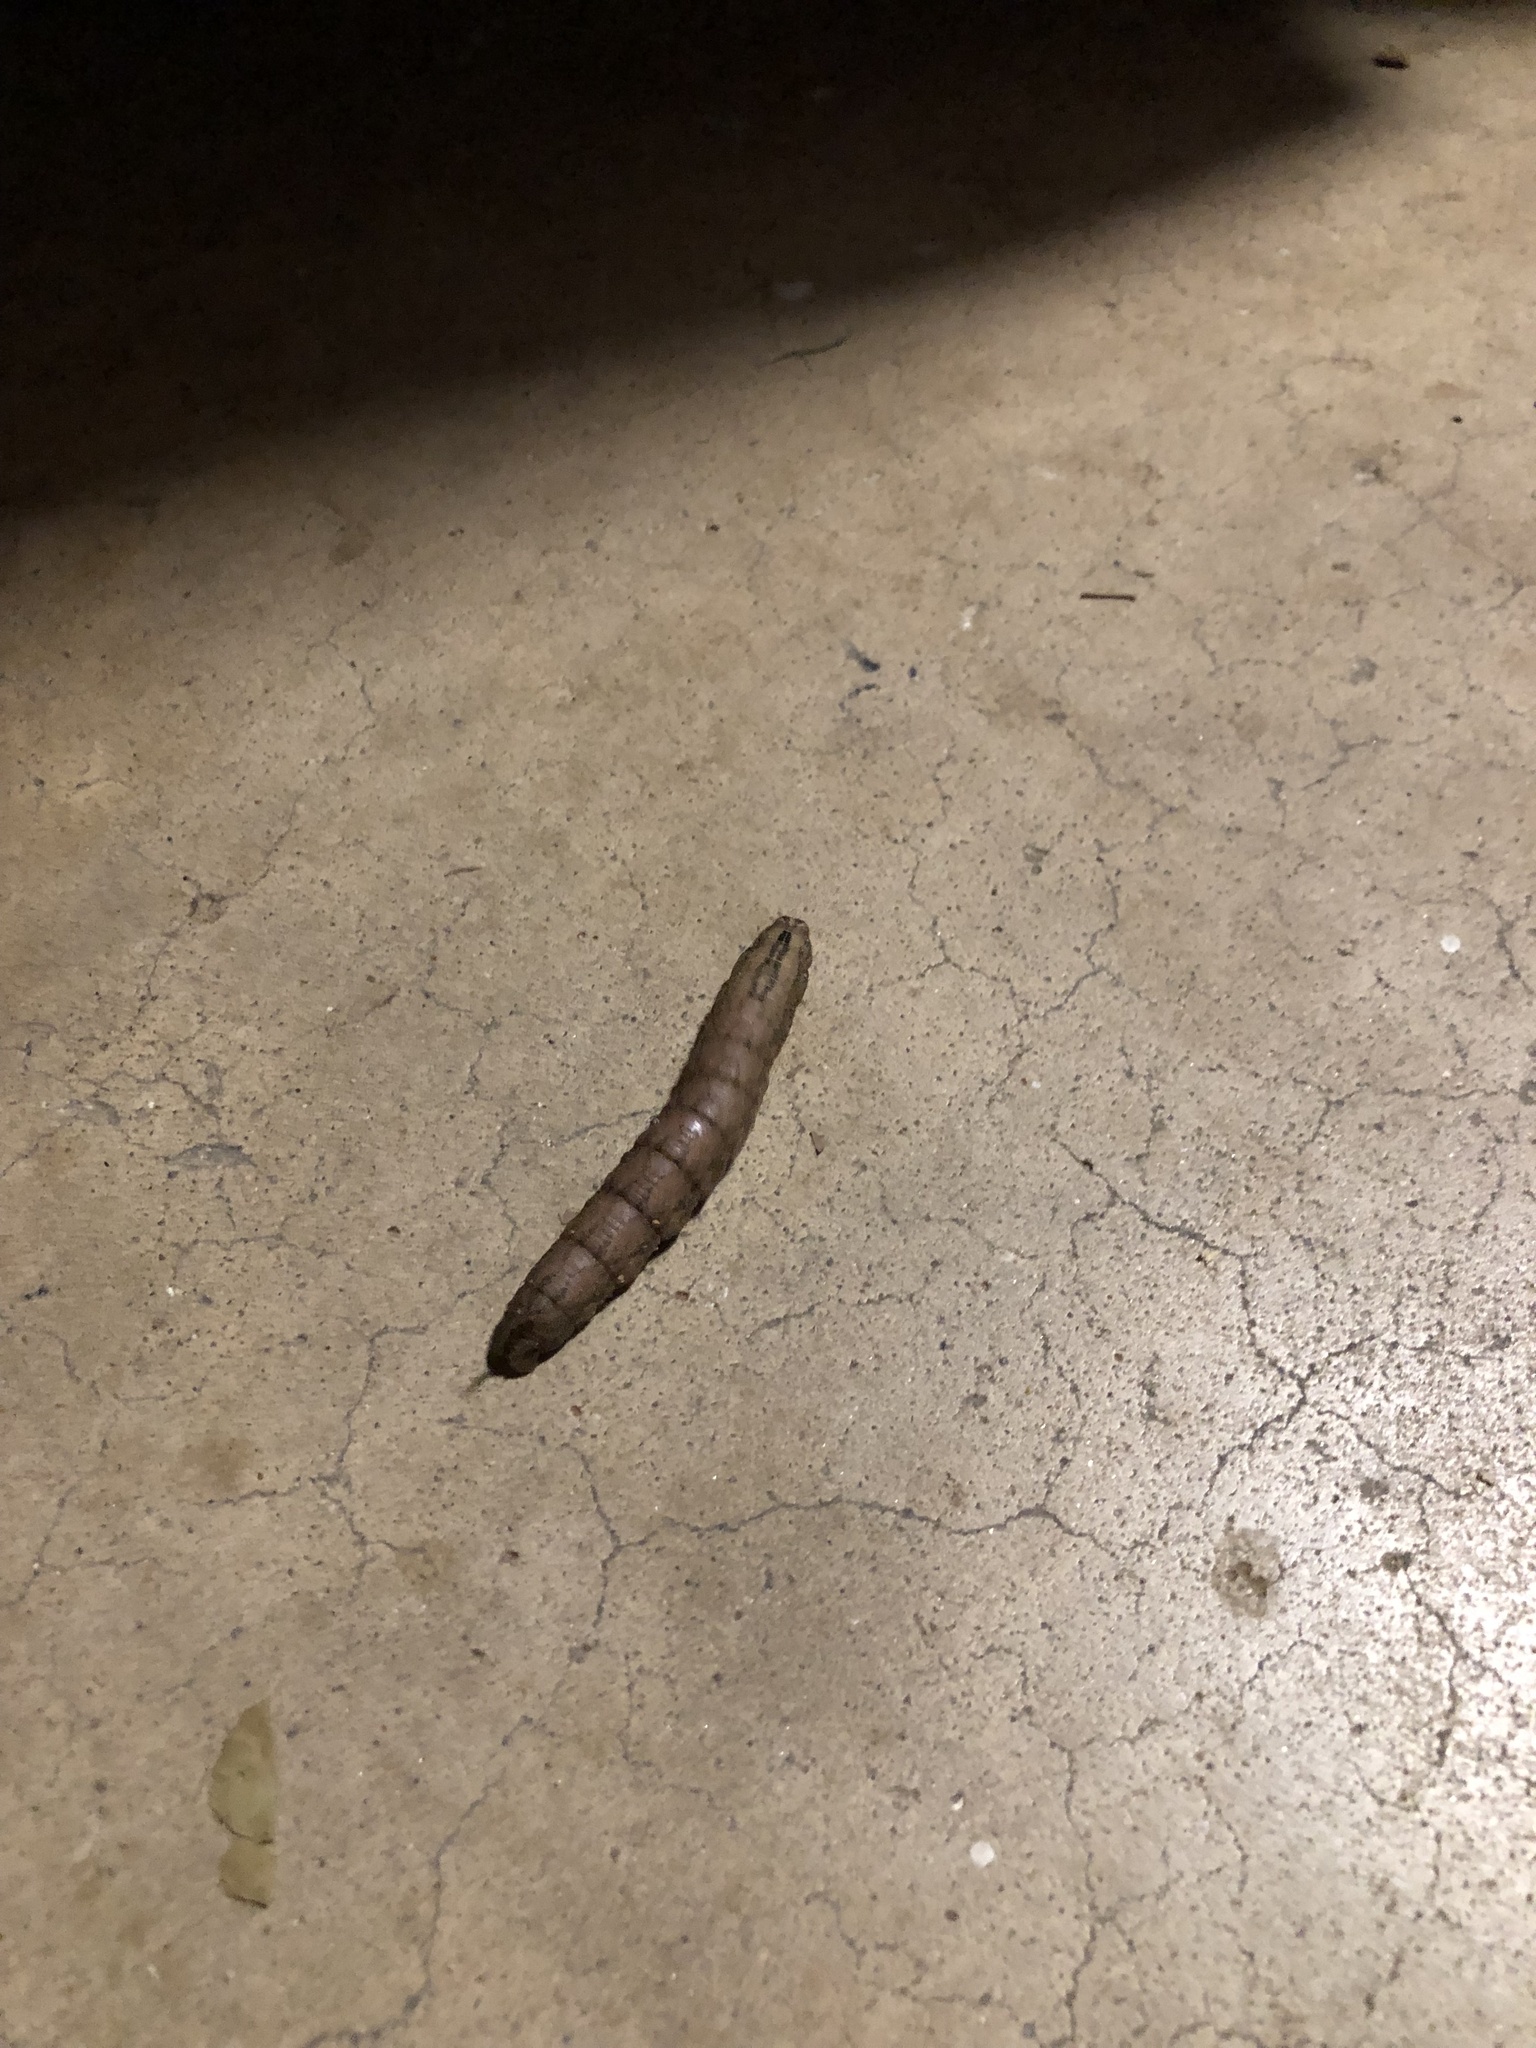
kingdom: Animalia
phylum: Arthropoda
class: Insecta
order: Lepidoptera
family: Sphingidae
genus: Ceratomia
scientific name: Ceratomia hageni
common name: Hagen's sphinx
